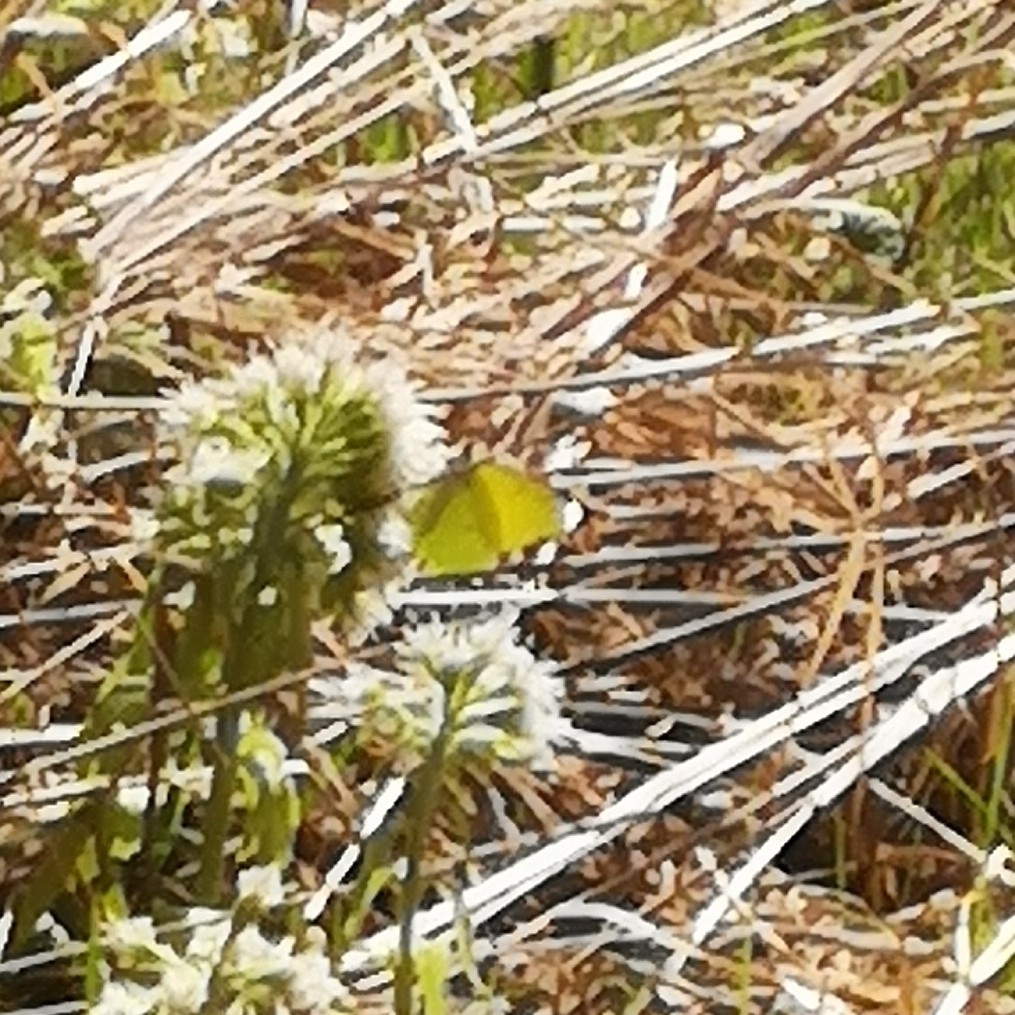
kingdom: Animalia
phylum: Arthropoda
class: Insecta
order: Lepidoptera
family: Pieridae
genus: Gonepteryx
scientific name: Gonepteryx rhamni
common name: Brimstone
